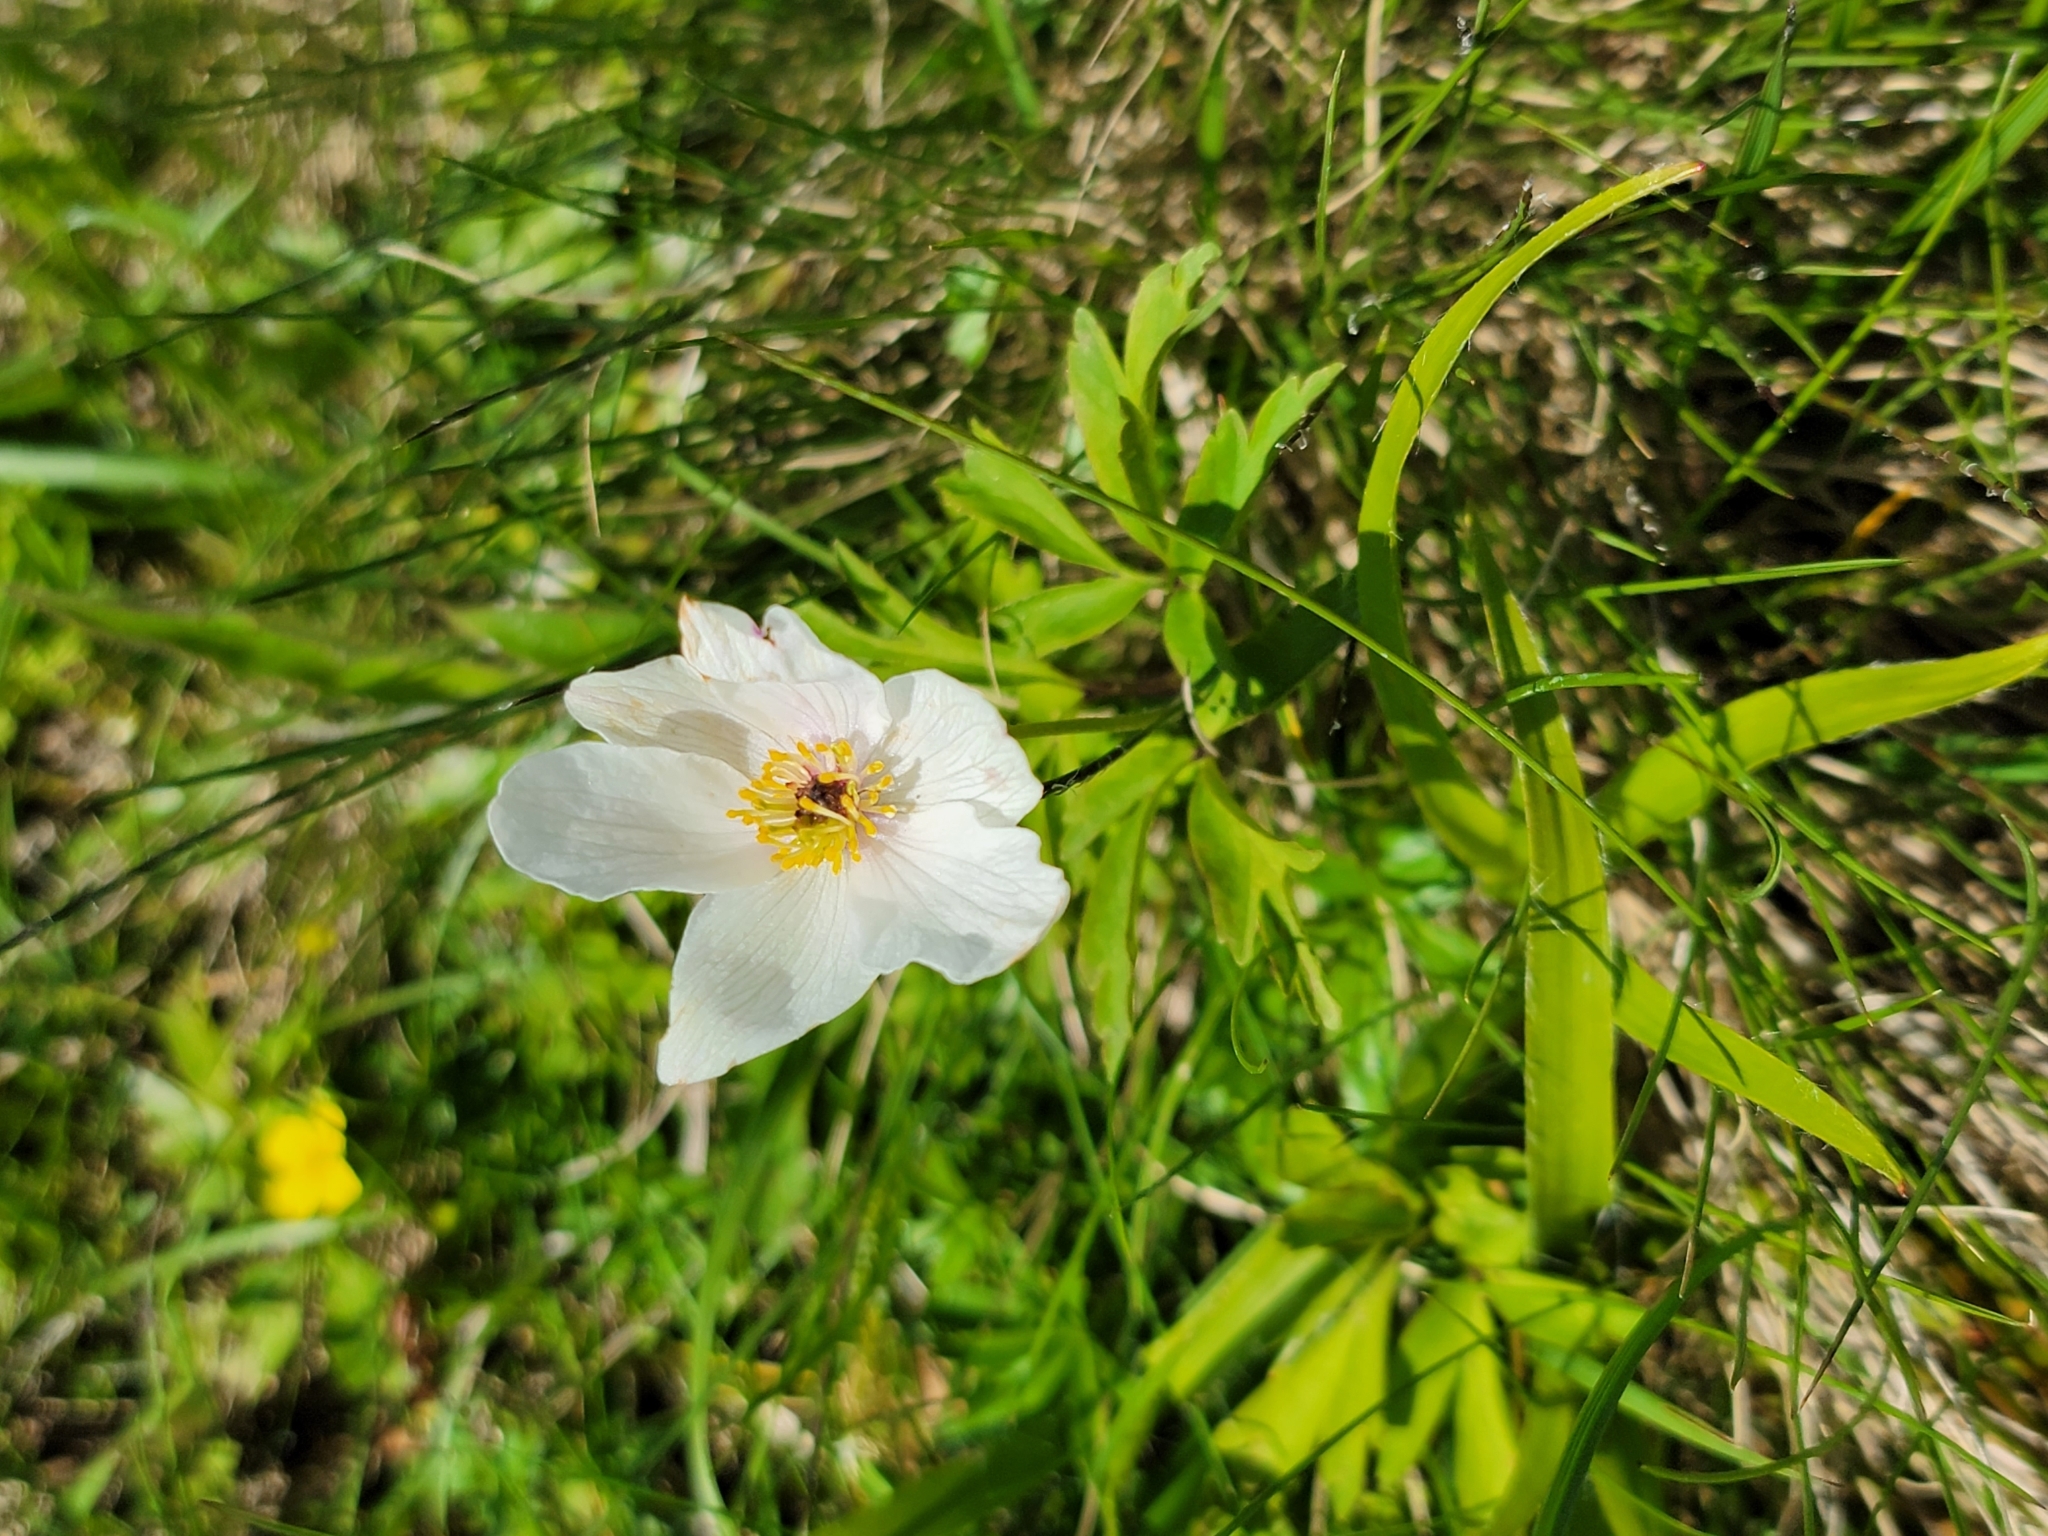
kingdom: Plantae
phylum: Tracheophyta
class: Magnoliopsida
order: Ranunculales
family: Ranunculaceae
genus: Anemone
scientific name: Anemone sylvestris
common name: Snowdrop anemone
